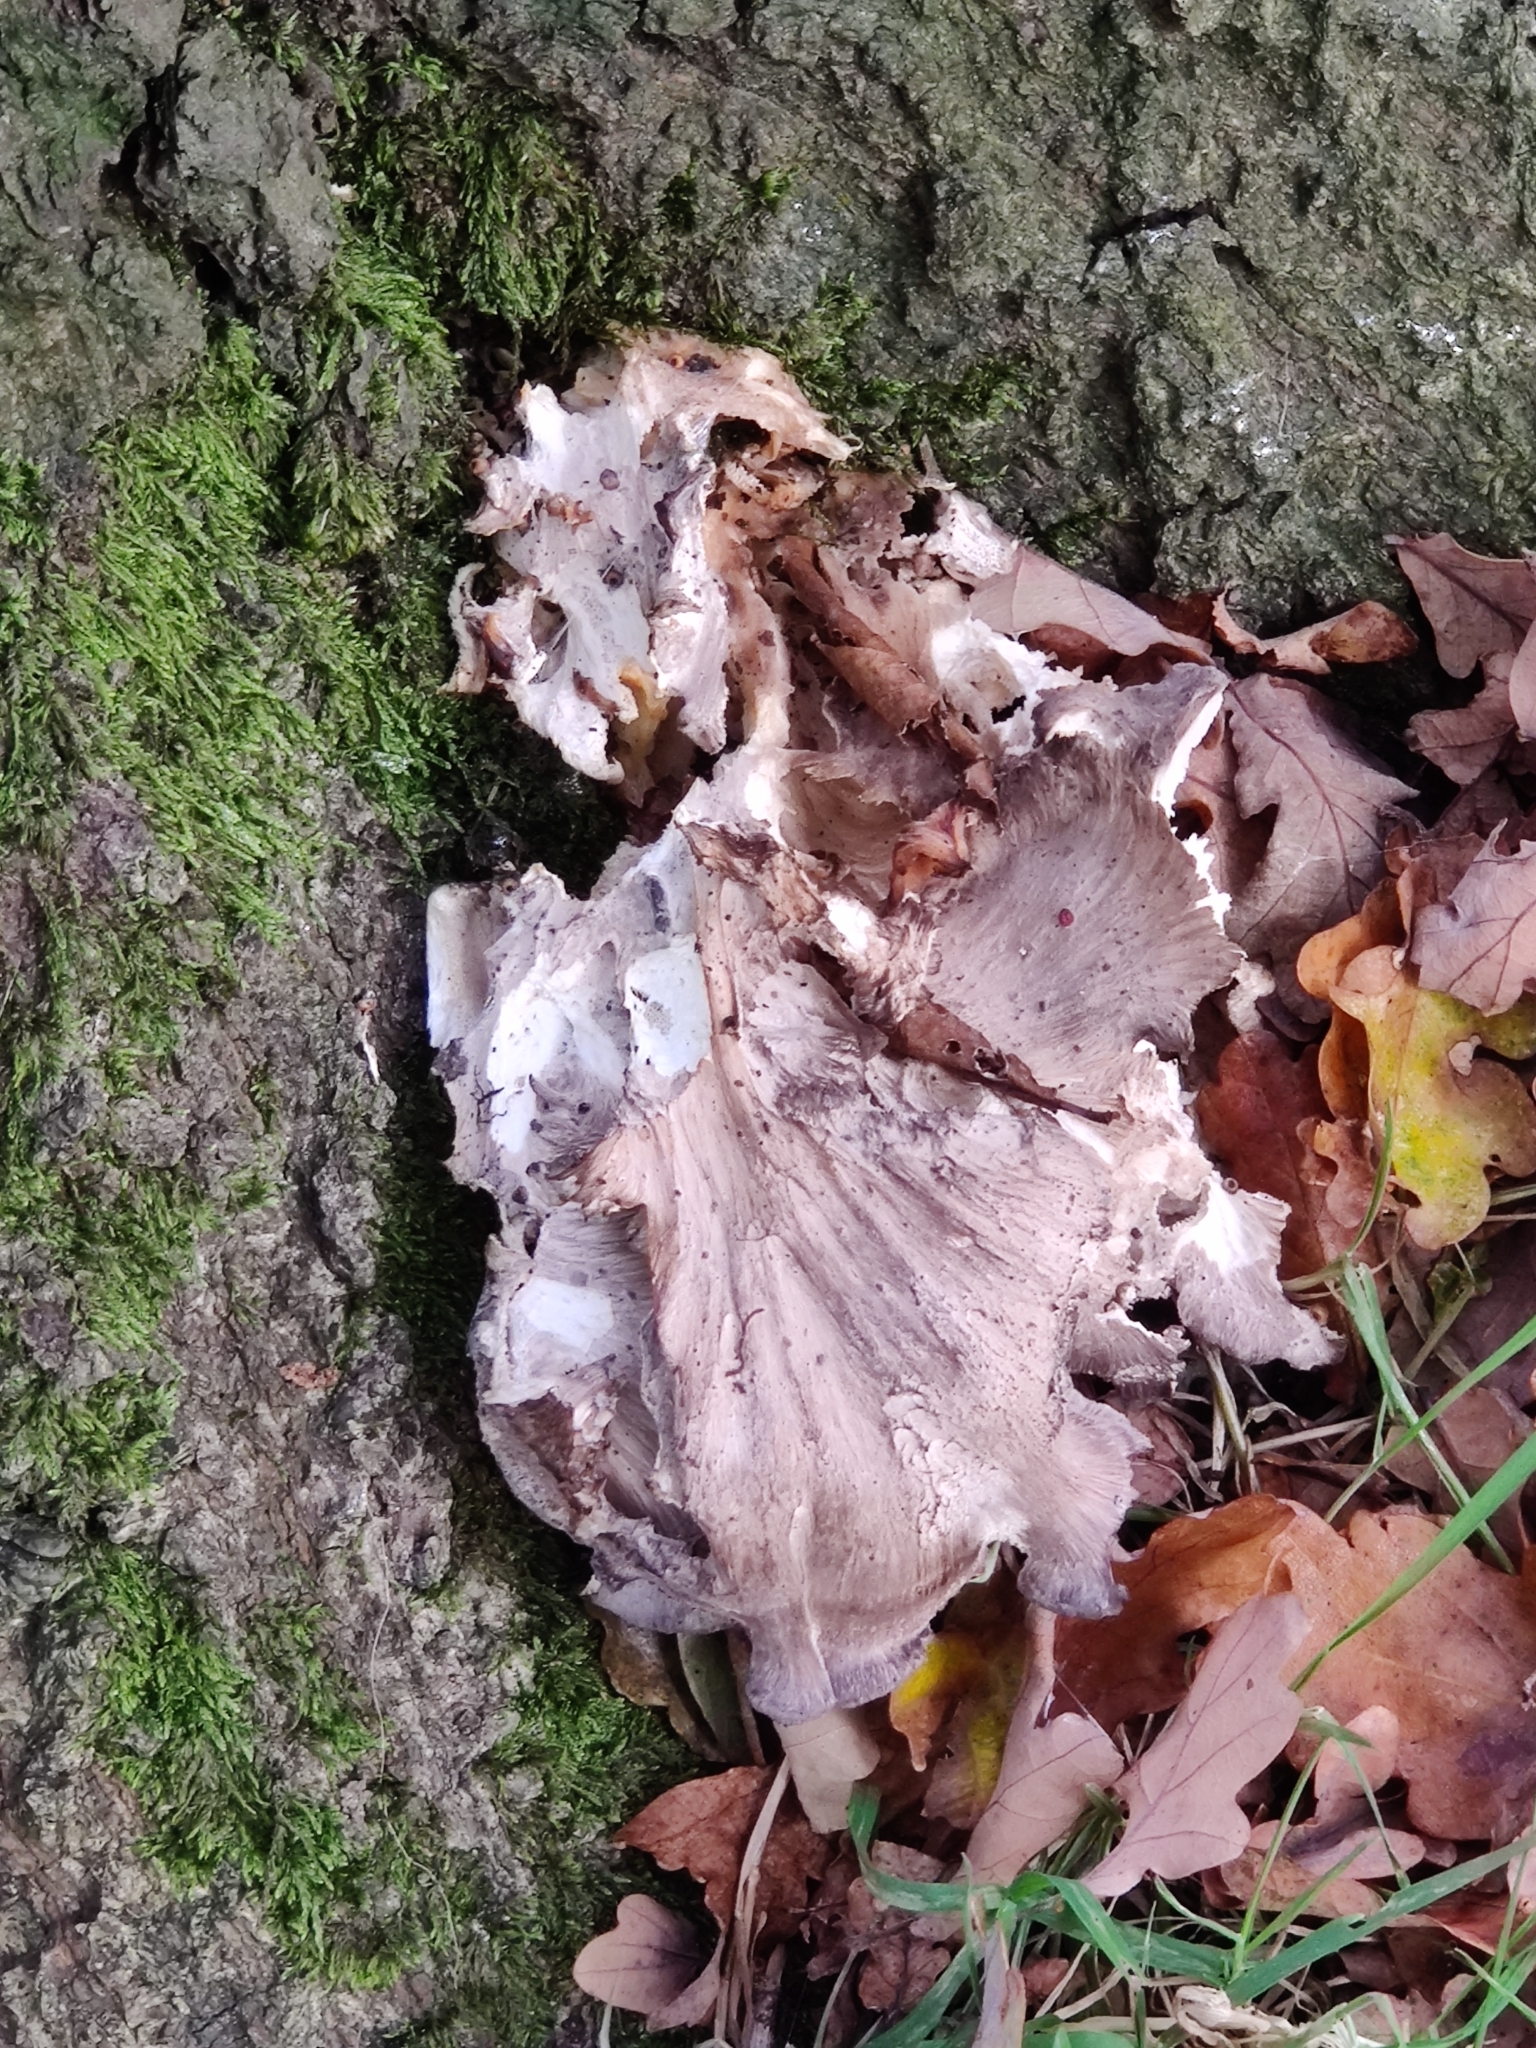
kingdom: Fungi
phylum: Basidiomycota
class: Agaricomycetes
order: Polyporales
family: Grifolaceae
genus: Grifola
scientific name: Grifola frondosa
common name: Hen of the woods
